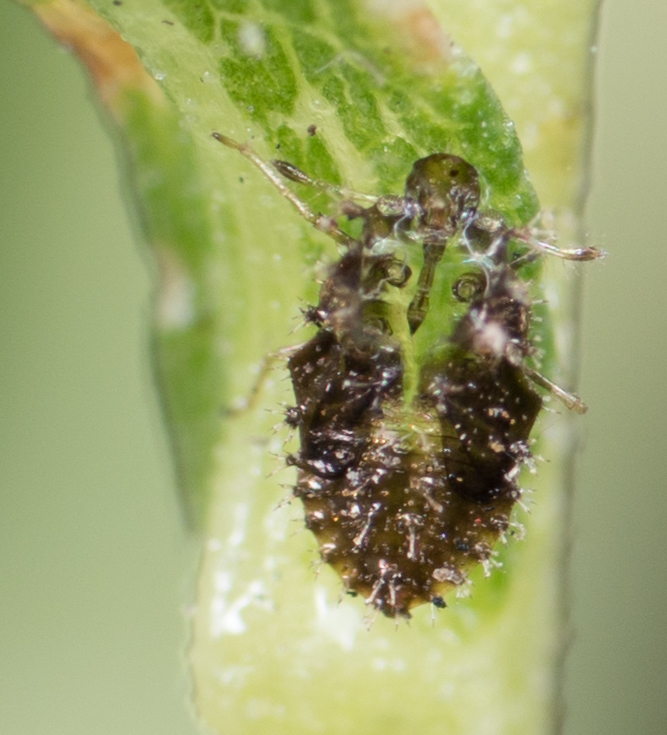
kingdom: Animalia
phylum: Arthropoda
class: Insecta
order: Hemiptera
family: Tingidae
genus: Corythucha
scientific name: Corythucha morrilli
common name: Morrill lace bug
